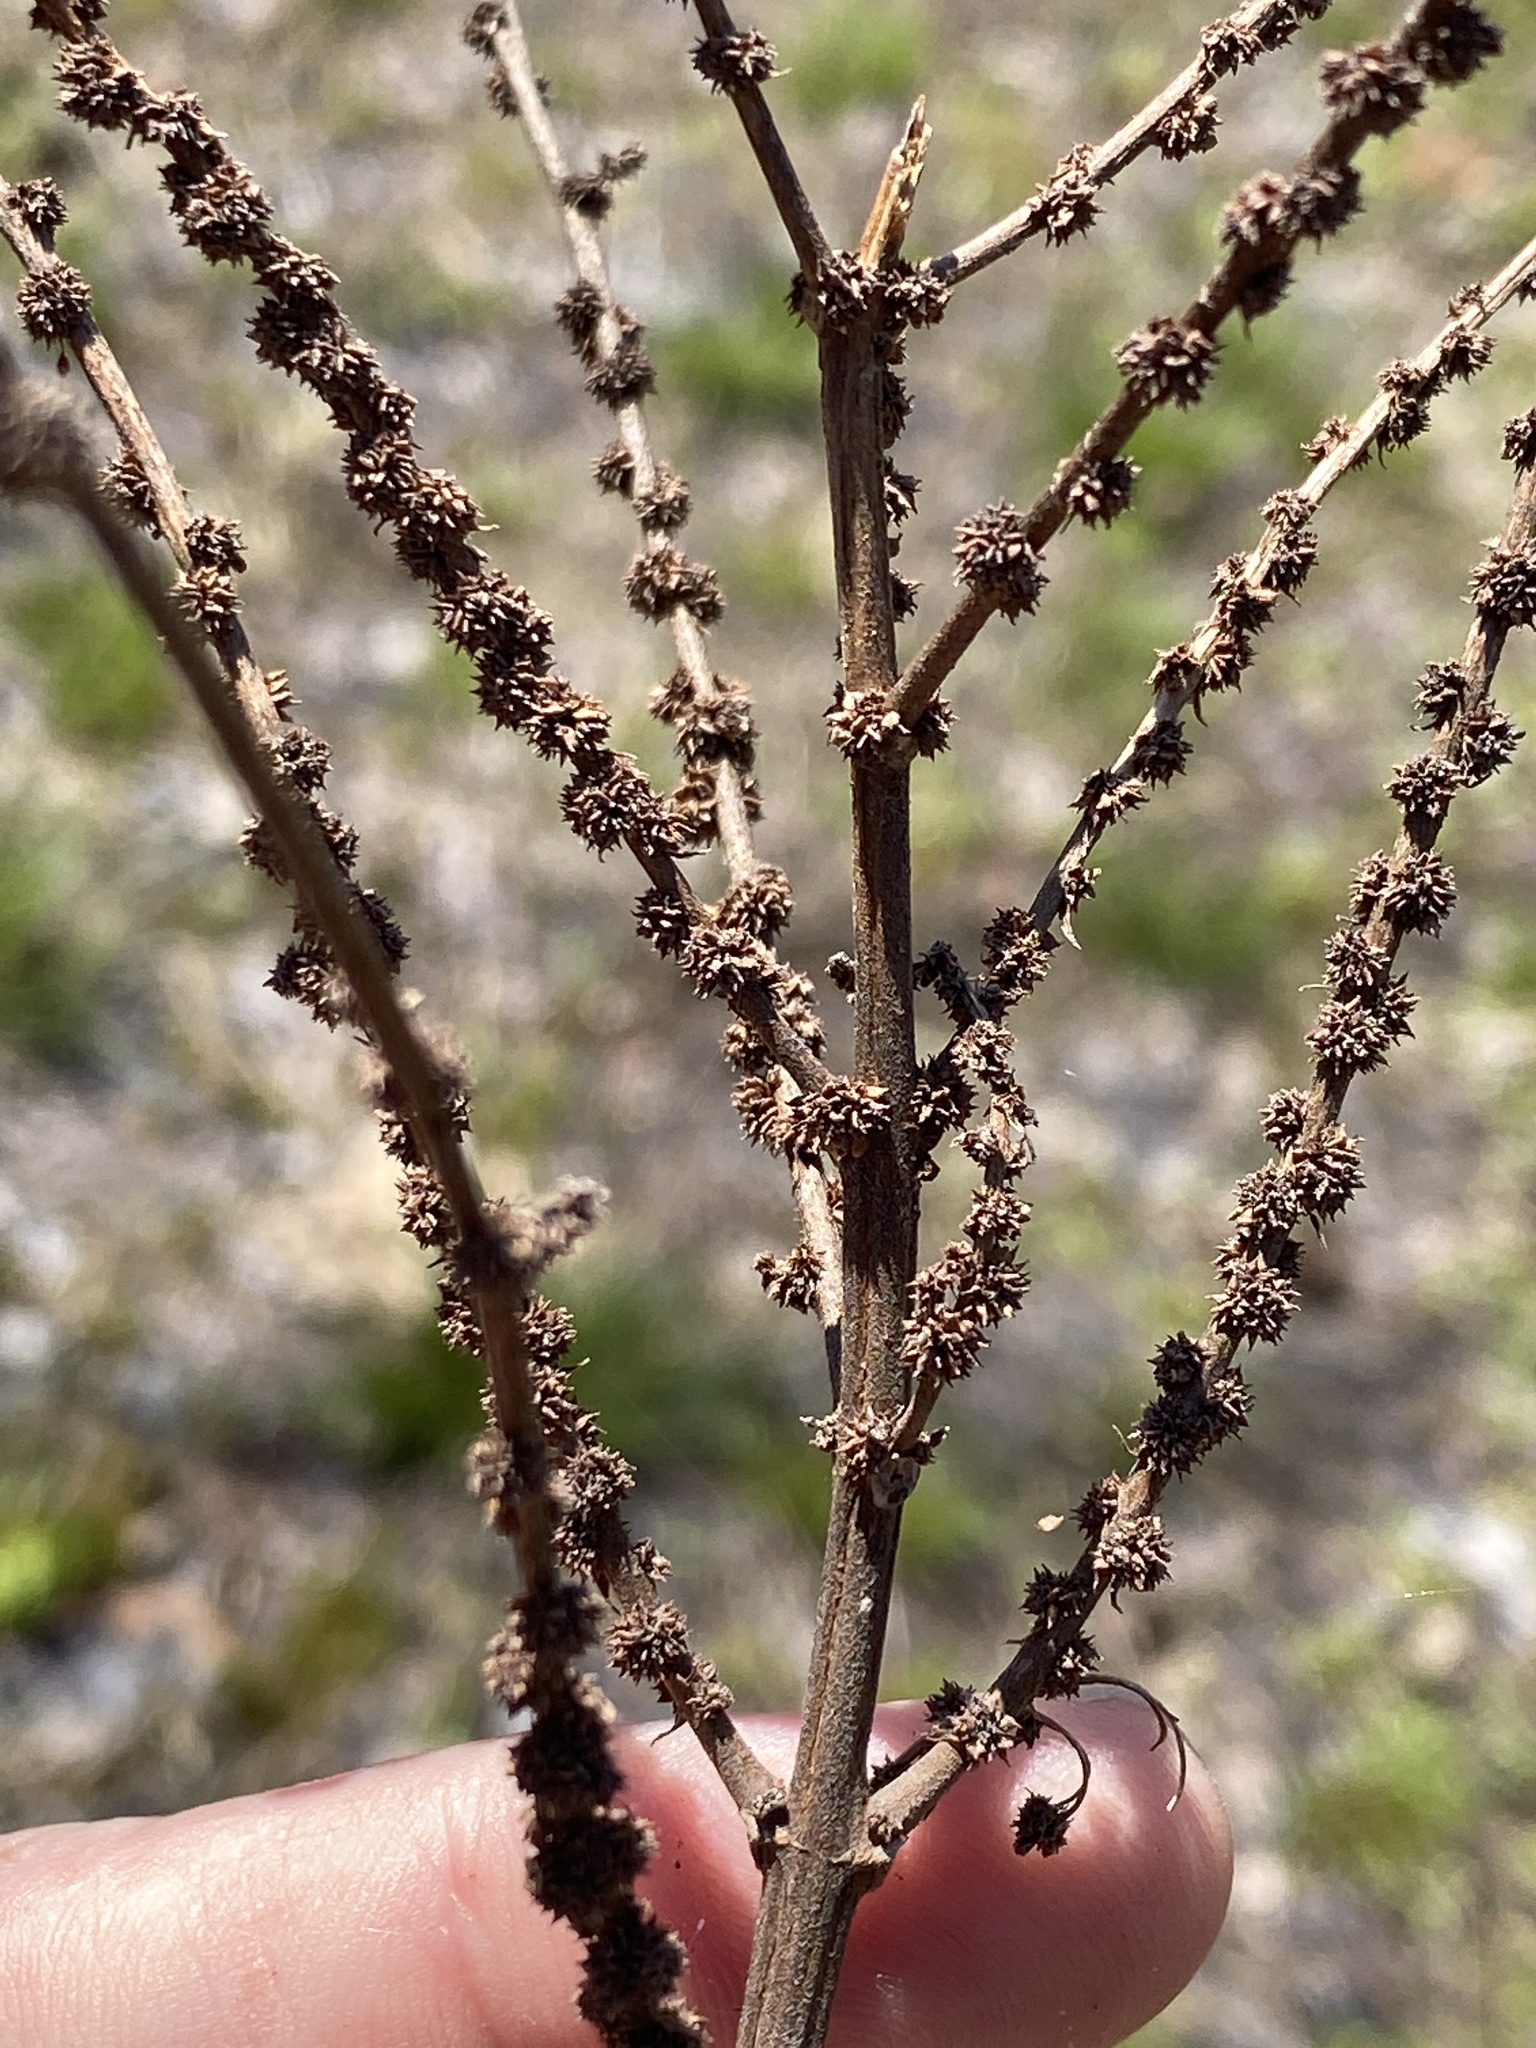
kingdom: Plantae
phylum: Tracheophyta
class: Magnoliopsida
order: Rosales
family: Urticaceae
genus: Boehmeria
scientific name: Boehmeria cylindrica
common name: Bog-hemp
